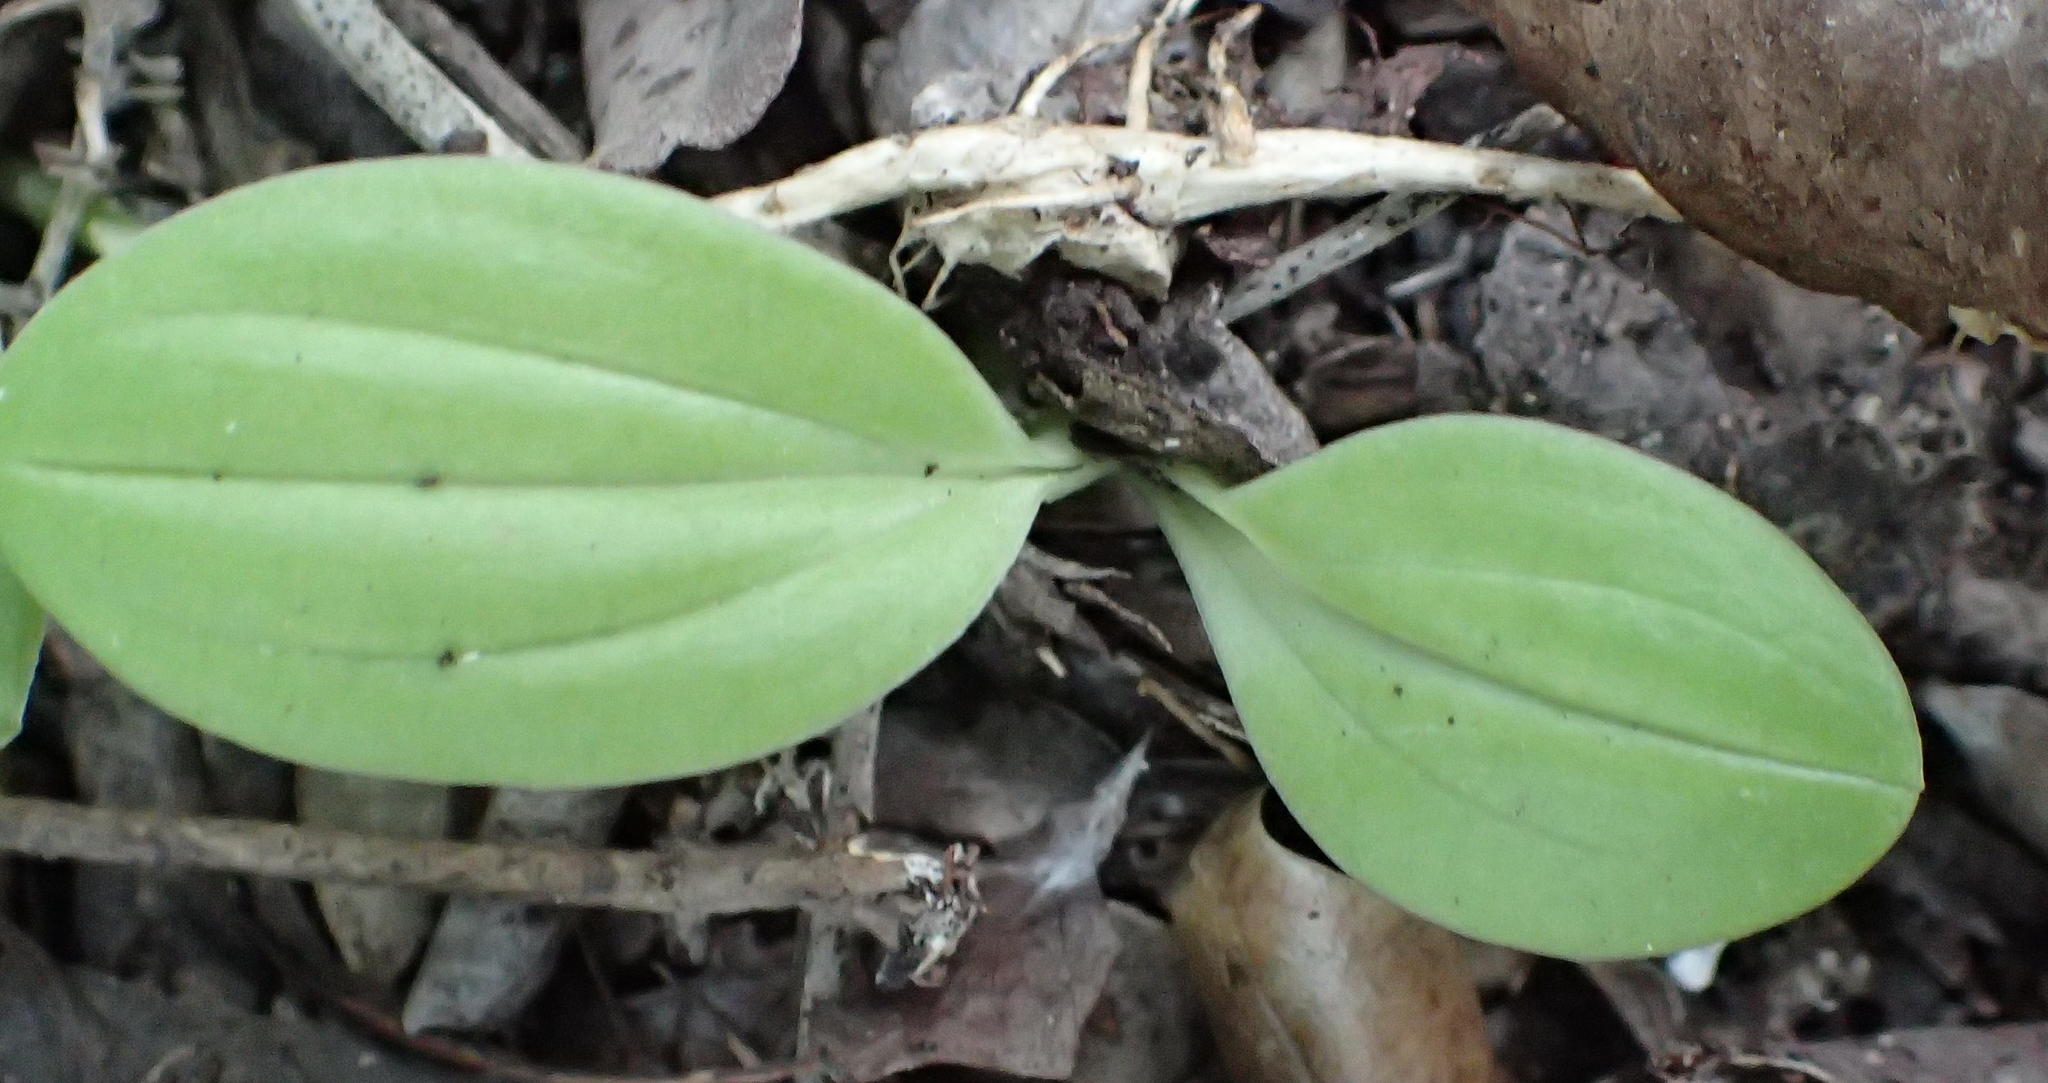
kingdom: Plantae
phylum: Tracheophyta
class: Liliopsida
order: Asparagales
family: Orchidaceae
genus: Liparis
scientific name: Liparis remota
